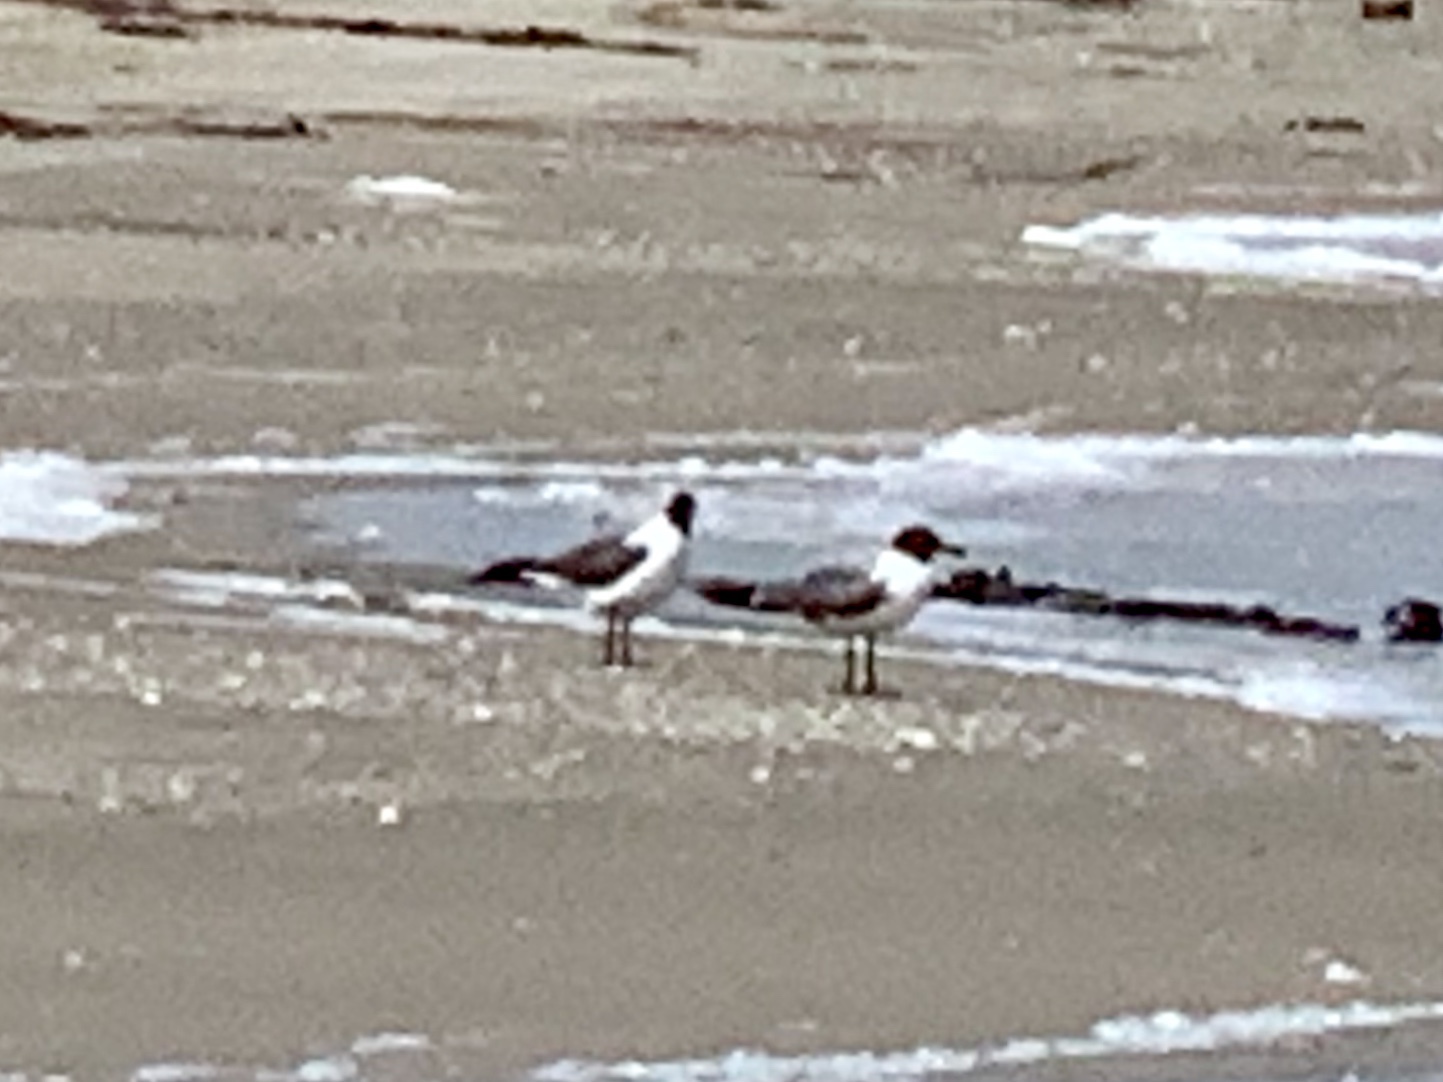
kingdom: Animalia
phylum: Chordata
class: Aves
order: Charadriiformes
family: Laridae
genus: Leucophaeus
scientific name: Leucophaeus atricilla
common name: Laughing gull
